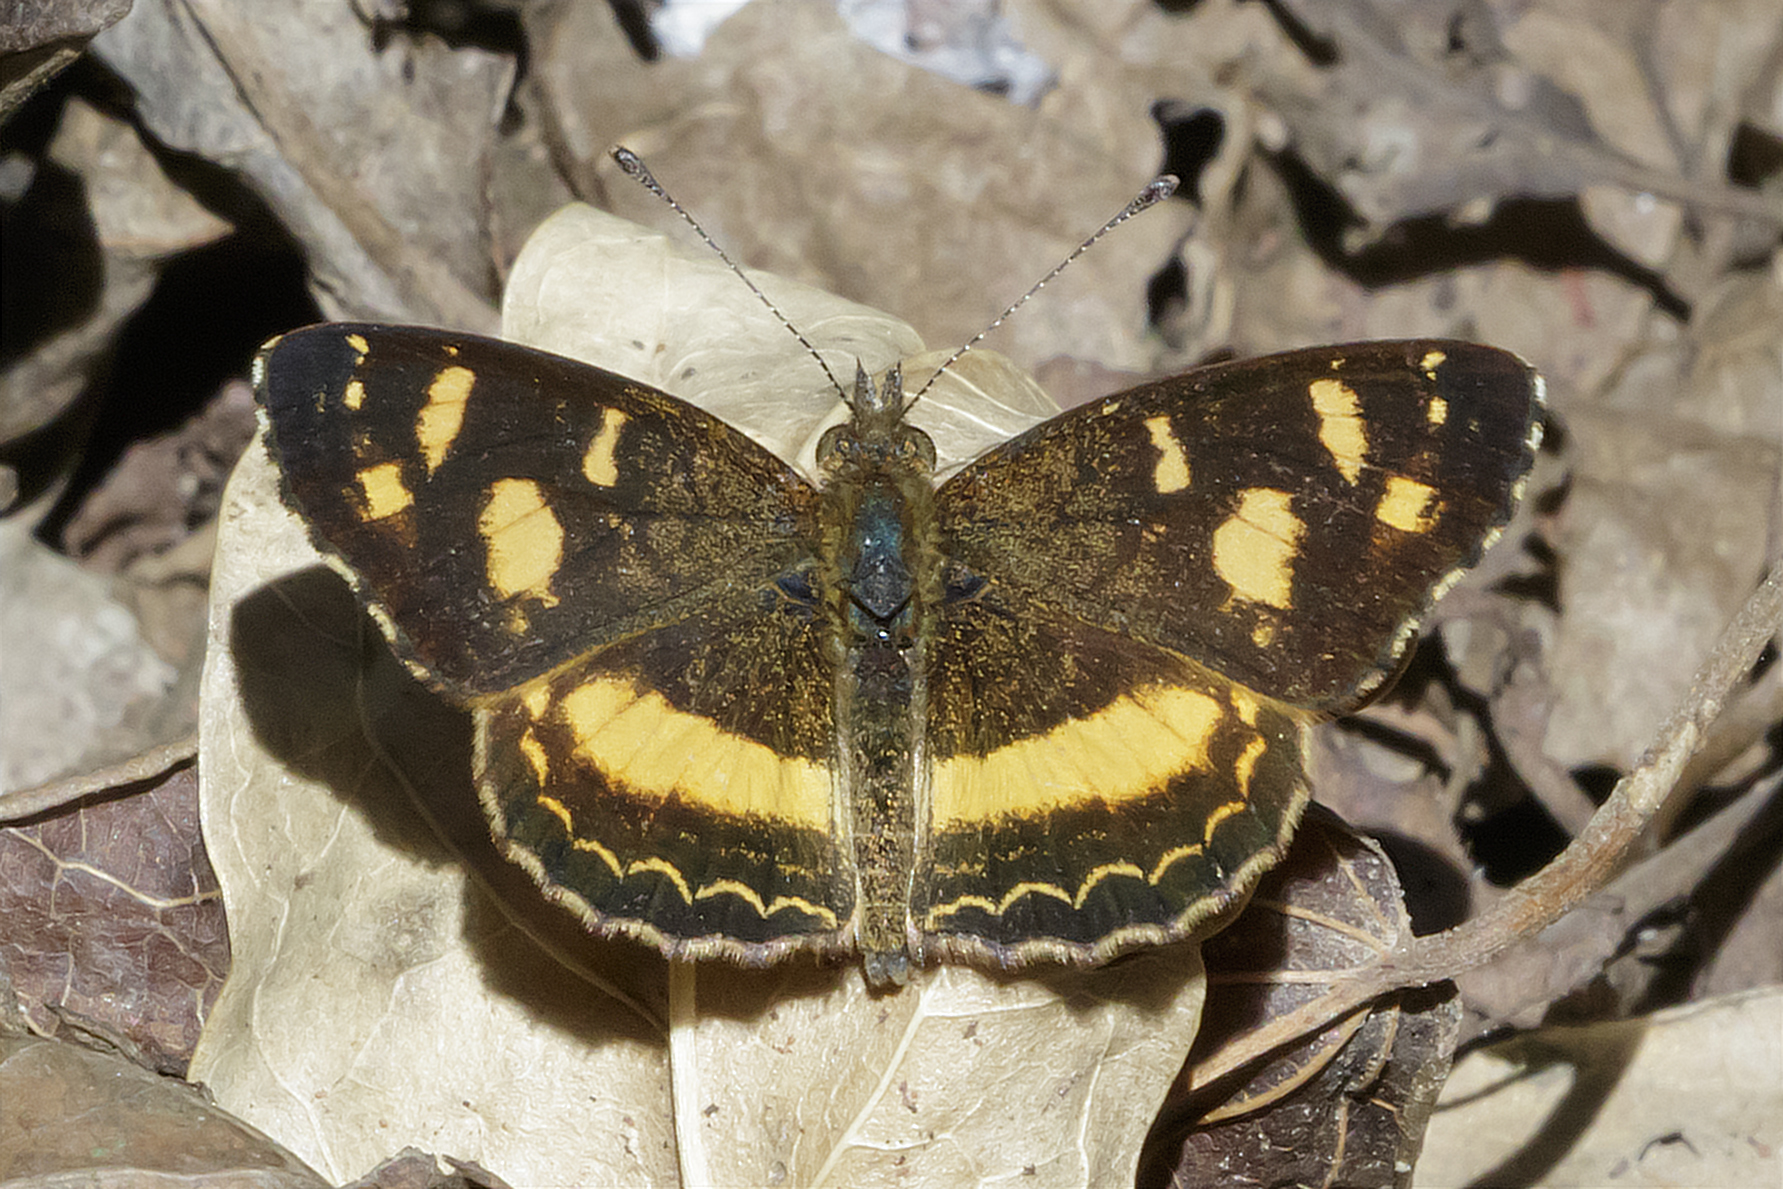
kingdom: Animalia
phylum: Arthropoda
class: Insecta
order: Lepidoptera
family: Nymphalidae
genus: Telenassa
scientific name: Telenassa berenice
